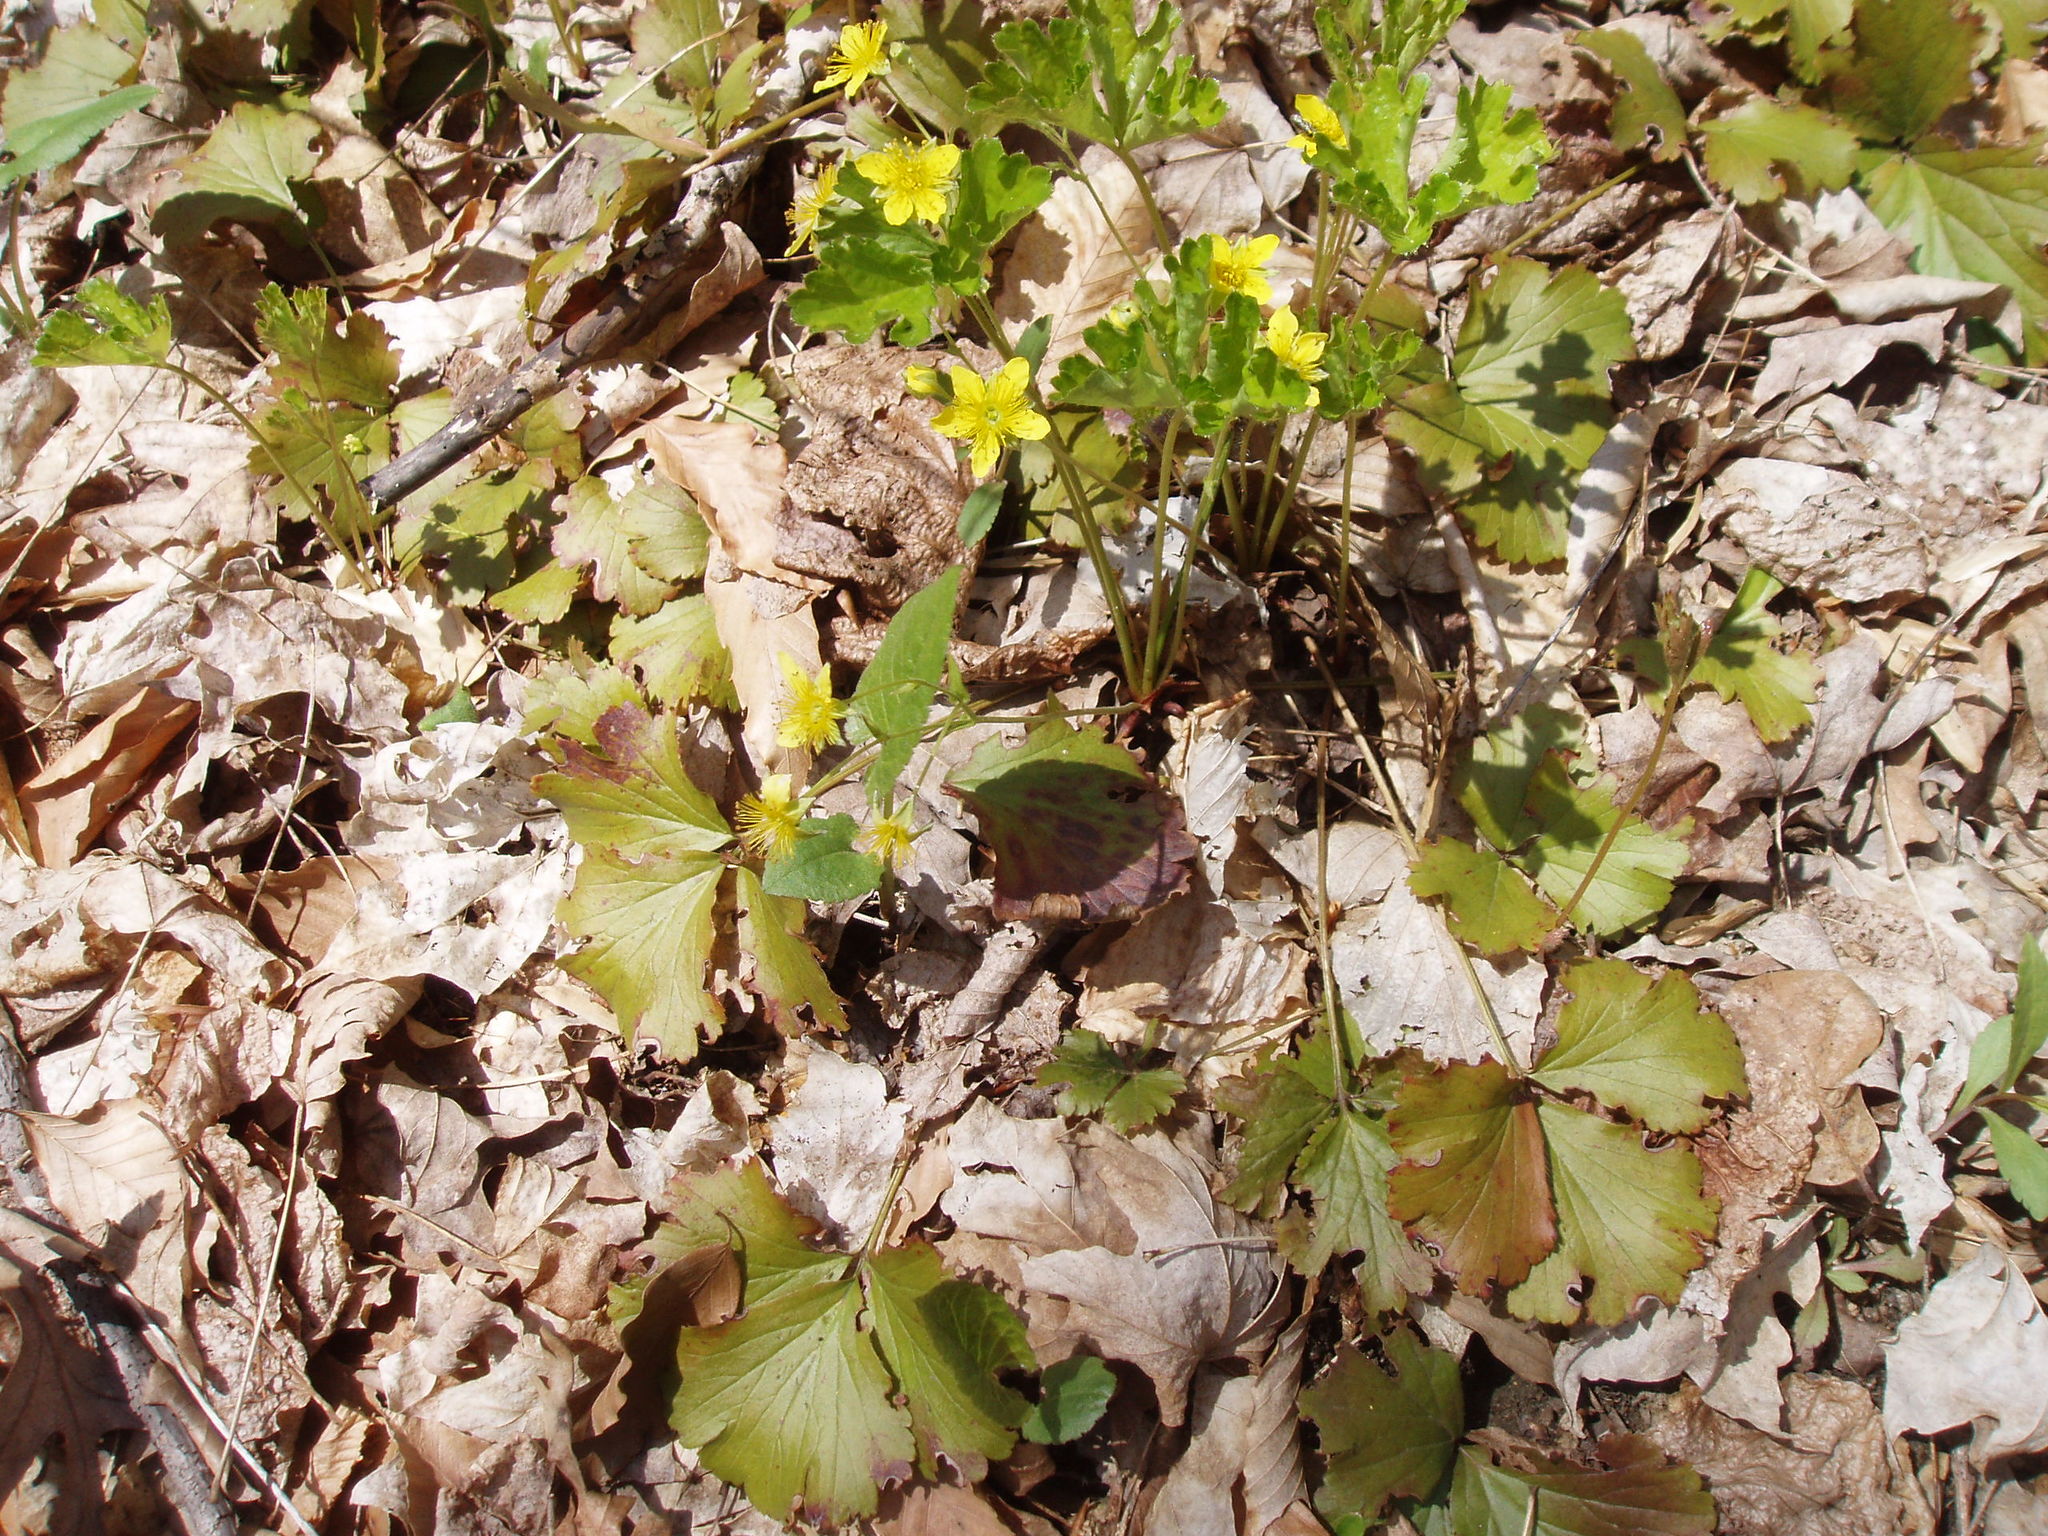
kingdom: Plantae
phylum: Tracheophyta
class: Magnoliopsida
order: Rosales
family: Rosaceae
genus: Geum
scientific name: Geum fragarioides
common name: Appalachian barren strawberry
